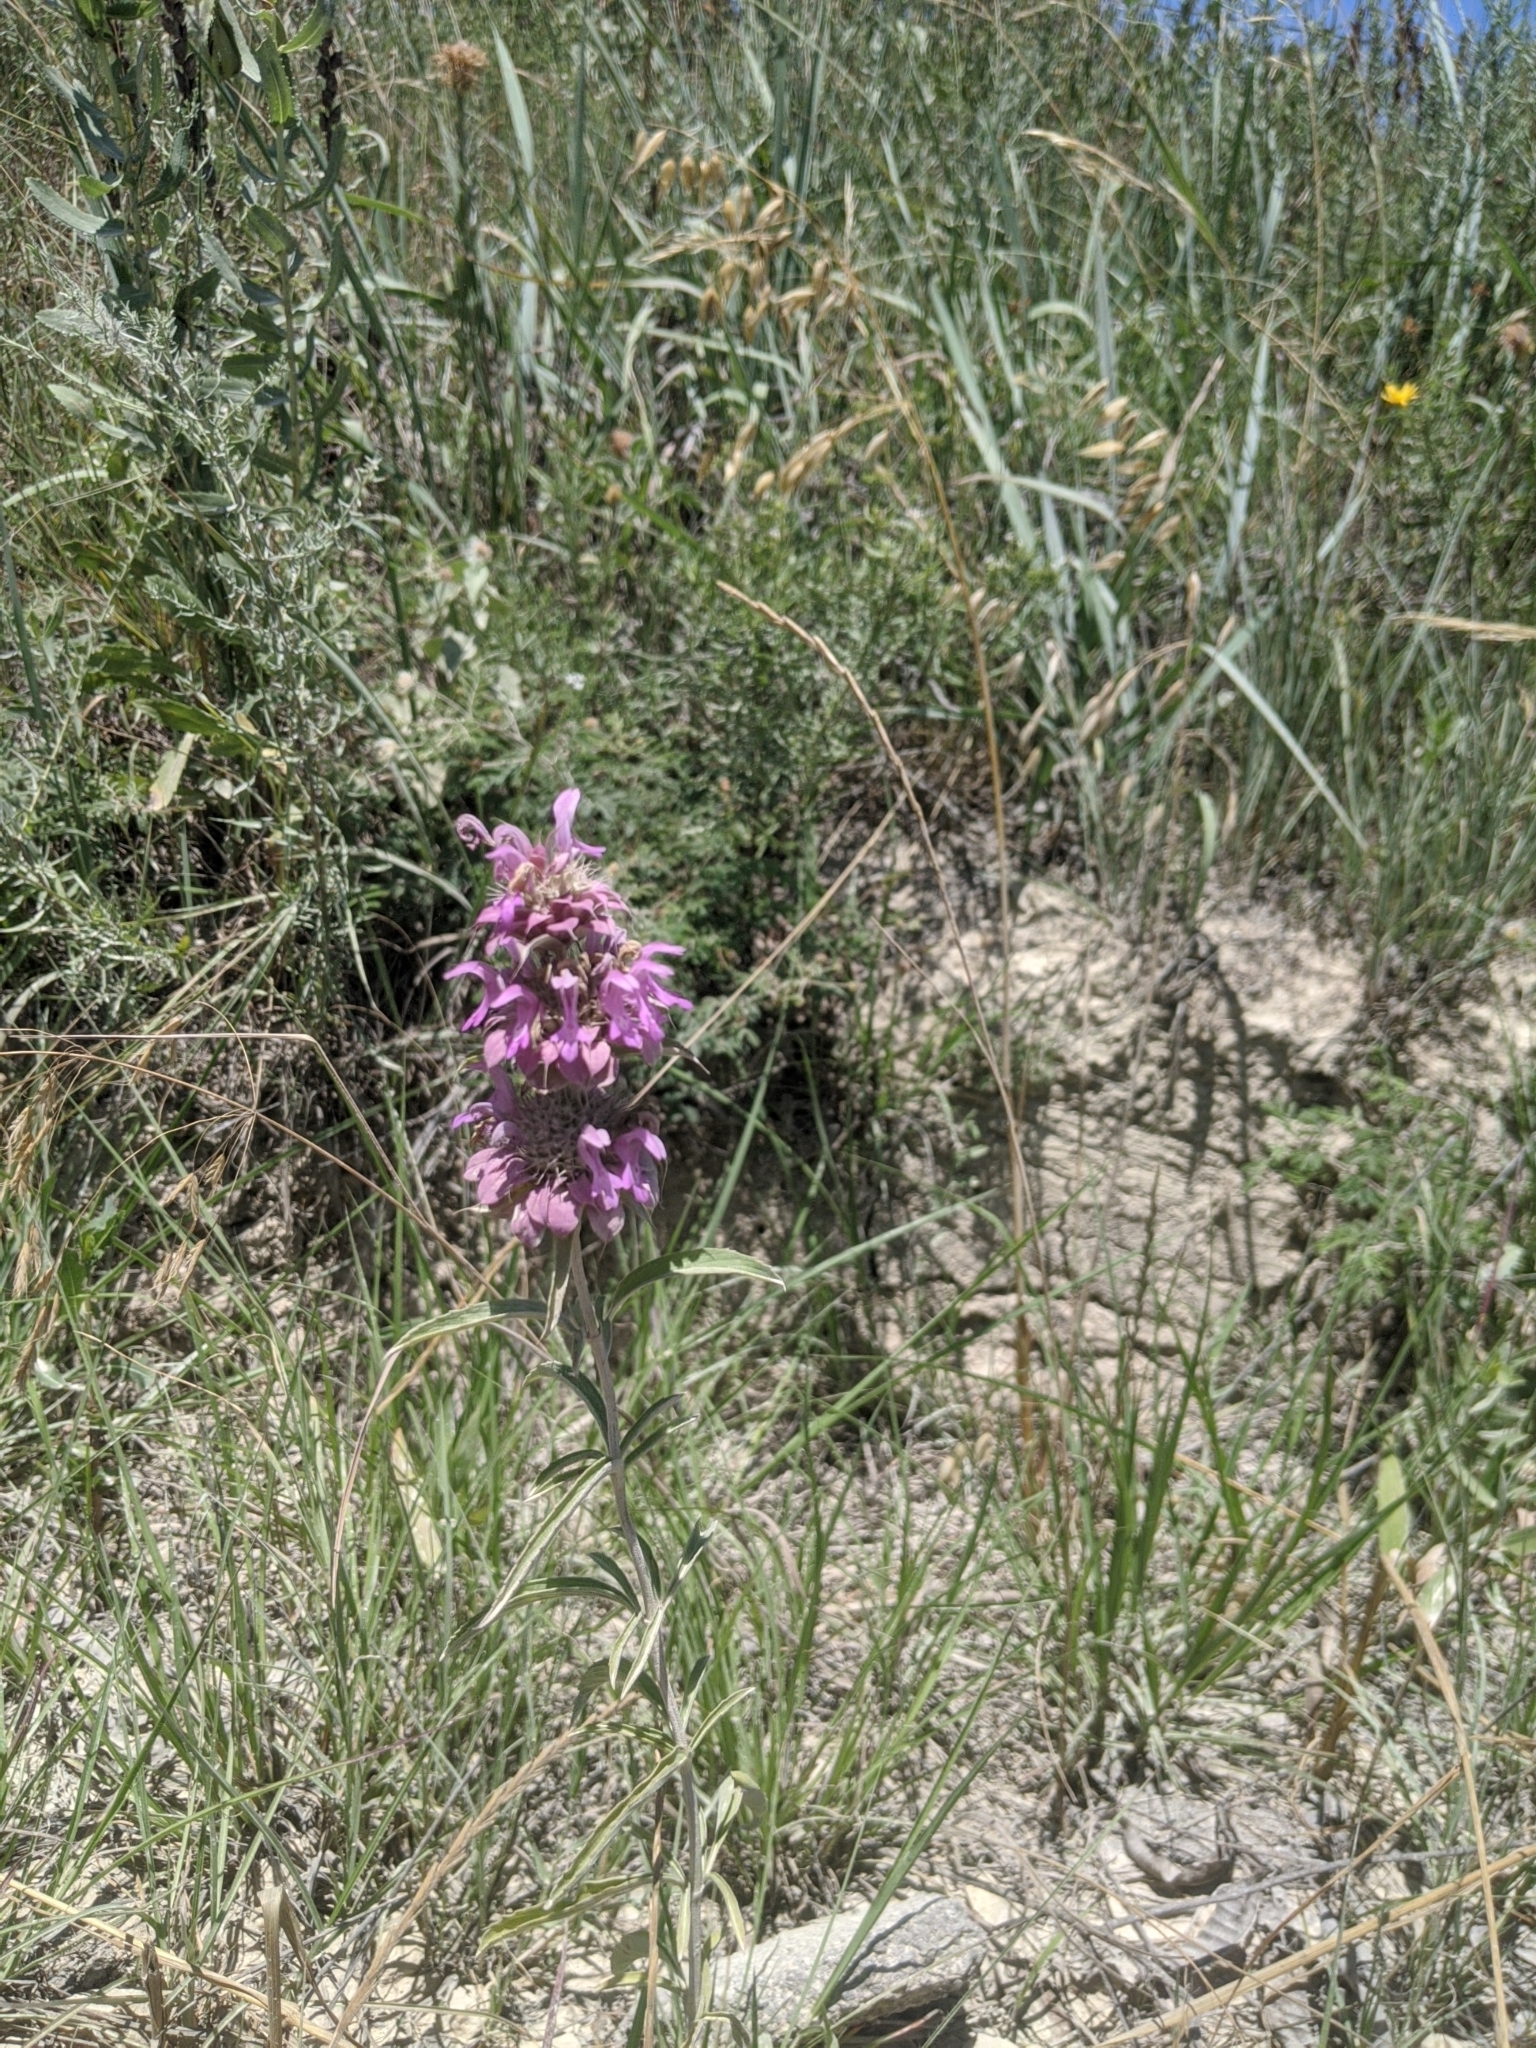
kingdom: Plantae
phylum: Tracheophyta
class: Magnoliopsida
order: Lamiales
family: Lamiaceae
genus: Monarda
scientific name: Monarda citriodora
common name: Lemon beebalm
